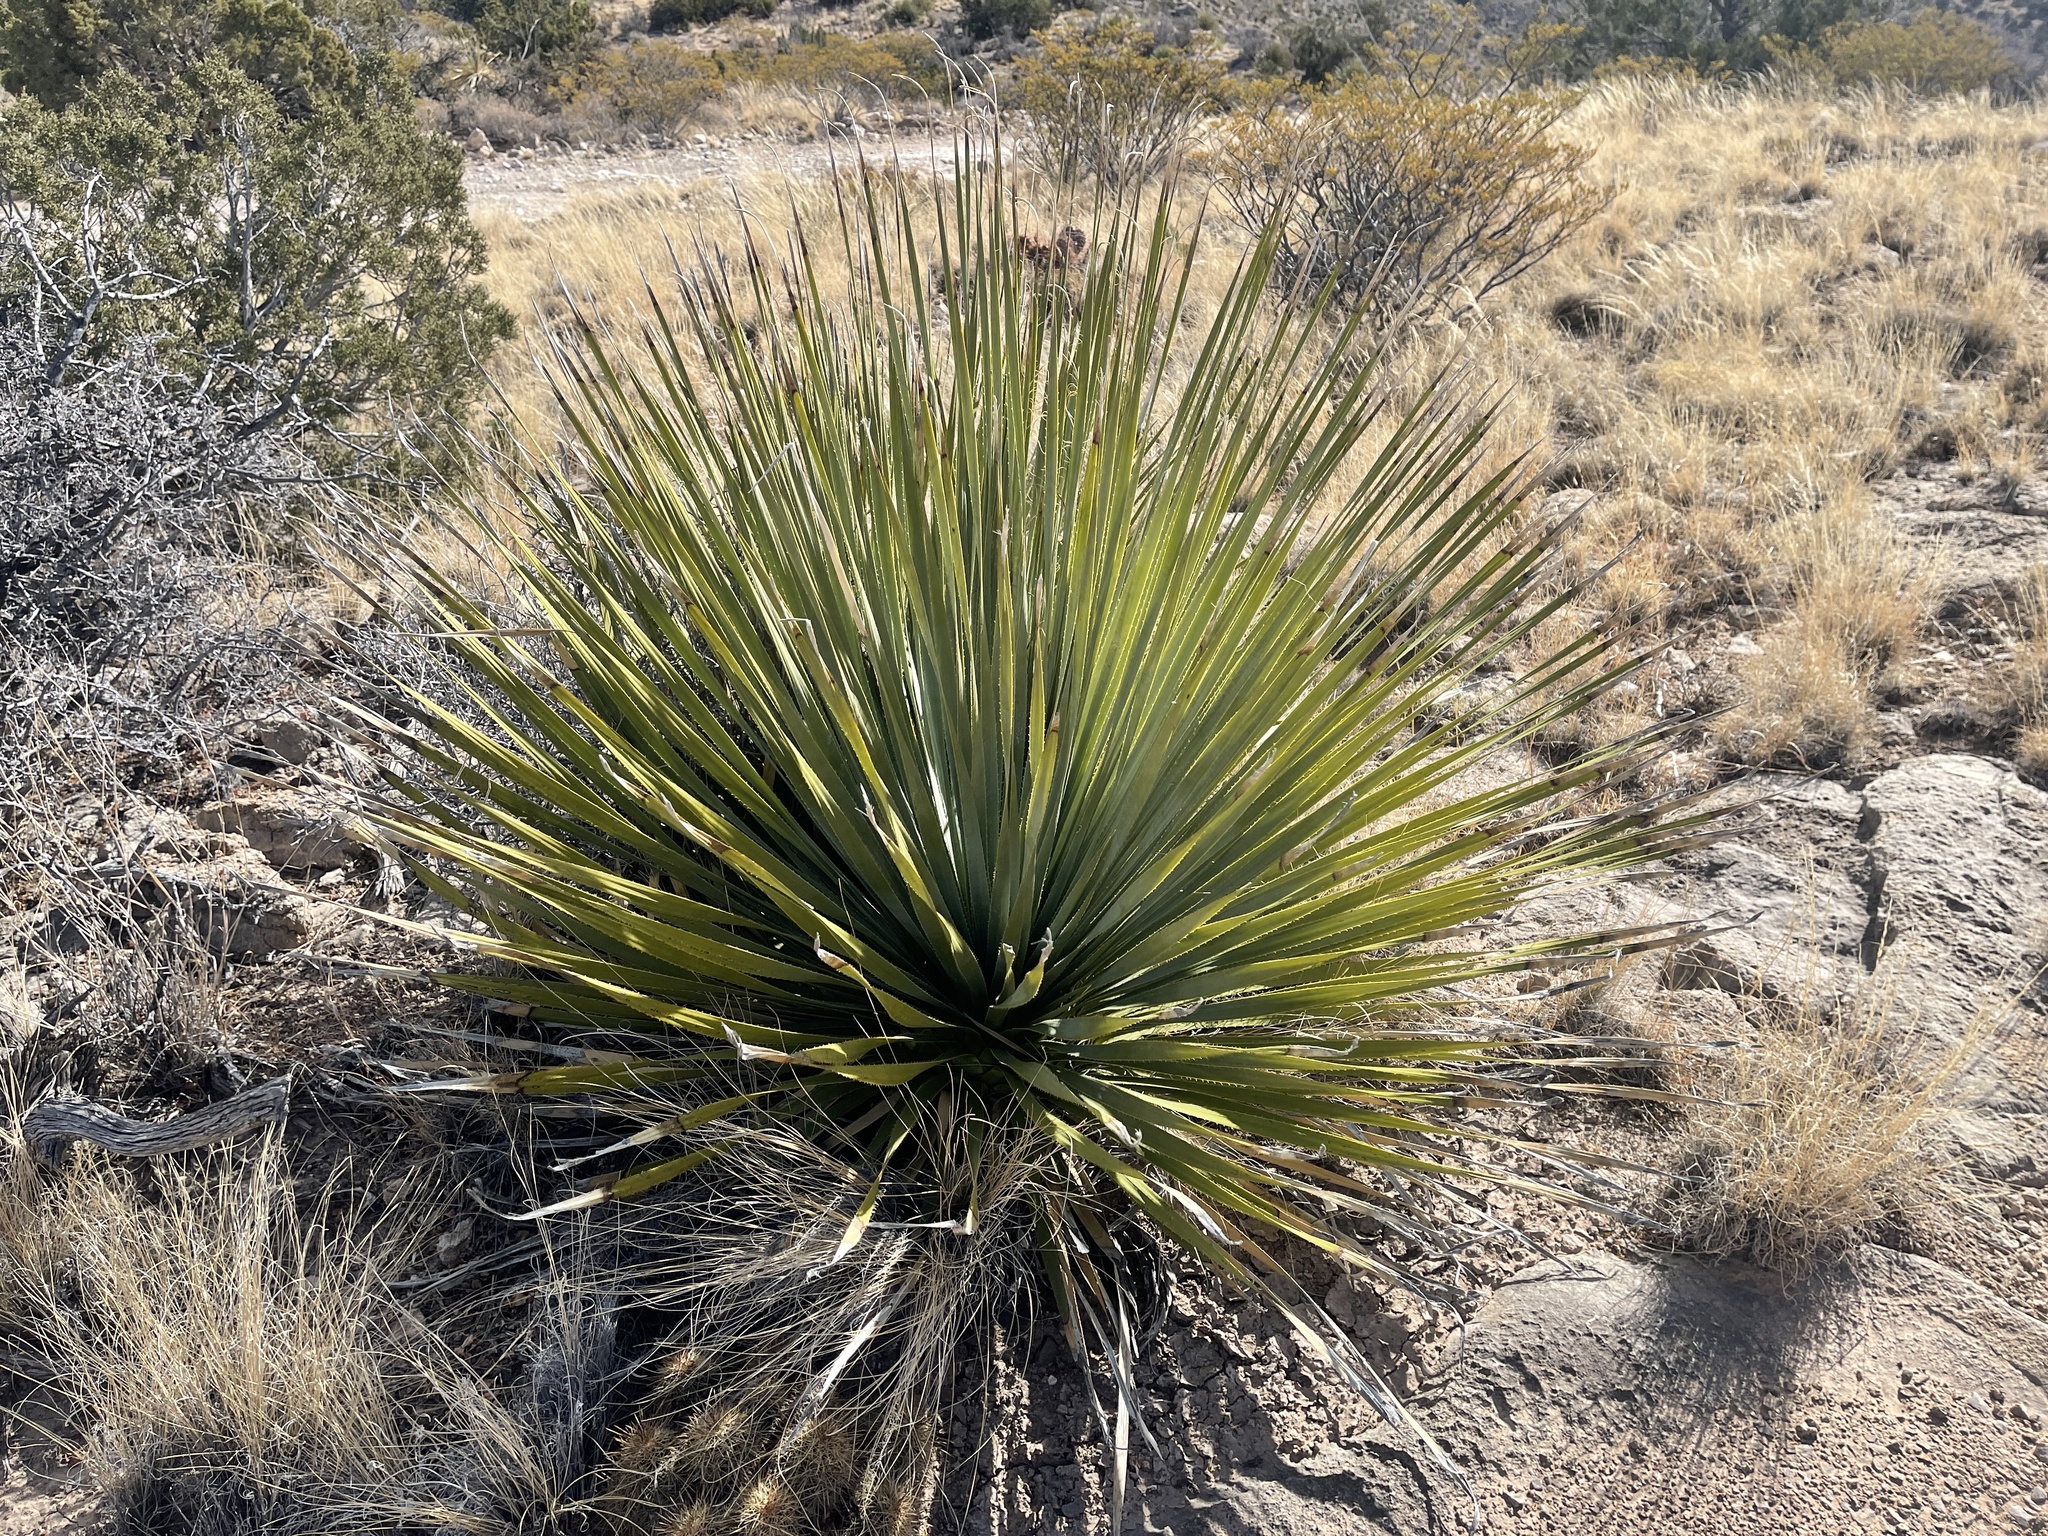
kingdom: Plantae
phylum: Tracheophyta
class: Liliopsida
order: Asparagales
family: Asparagaceae
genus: Dasylirion
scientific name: Dasylirion wheeleri
